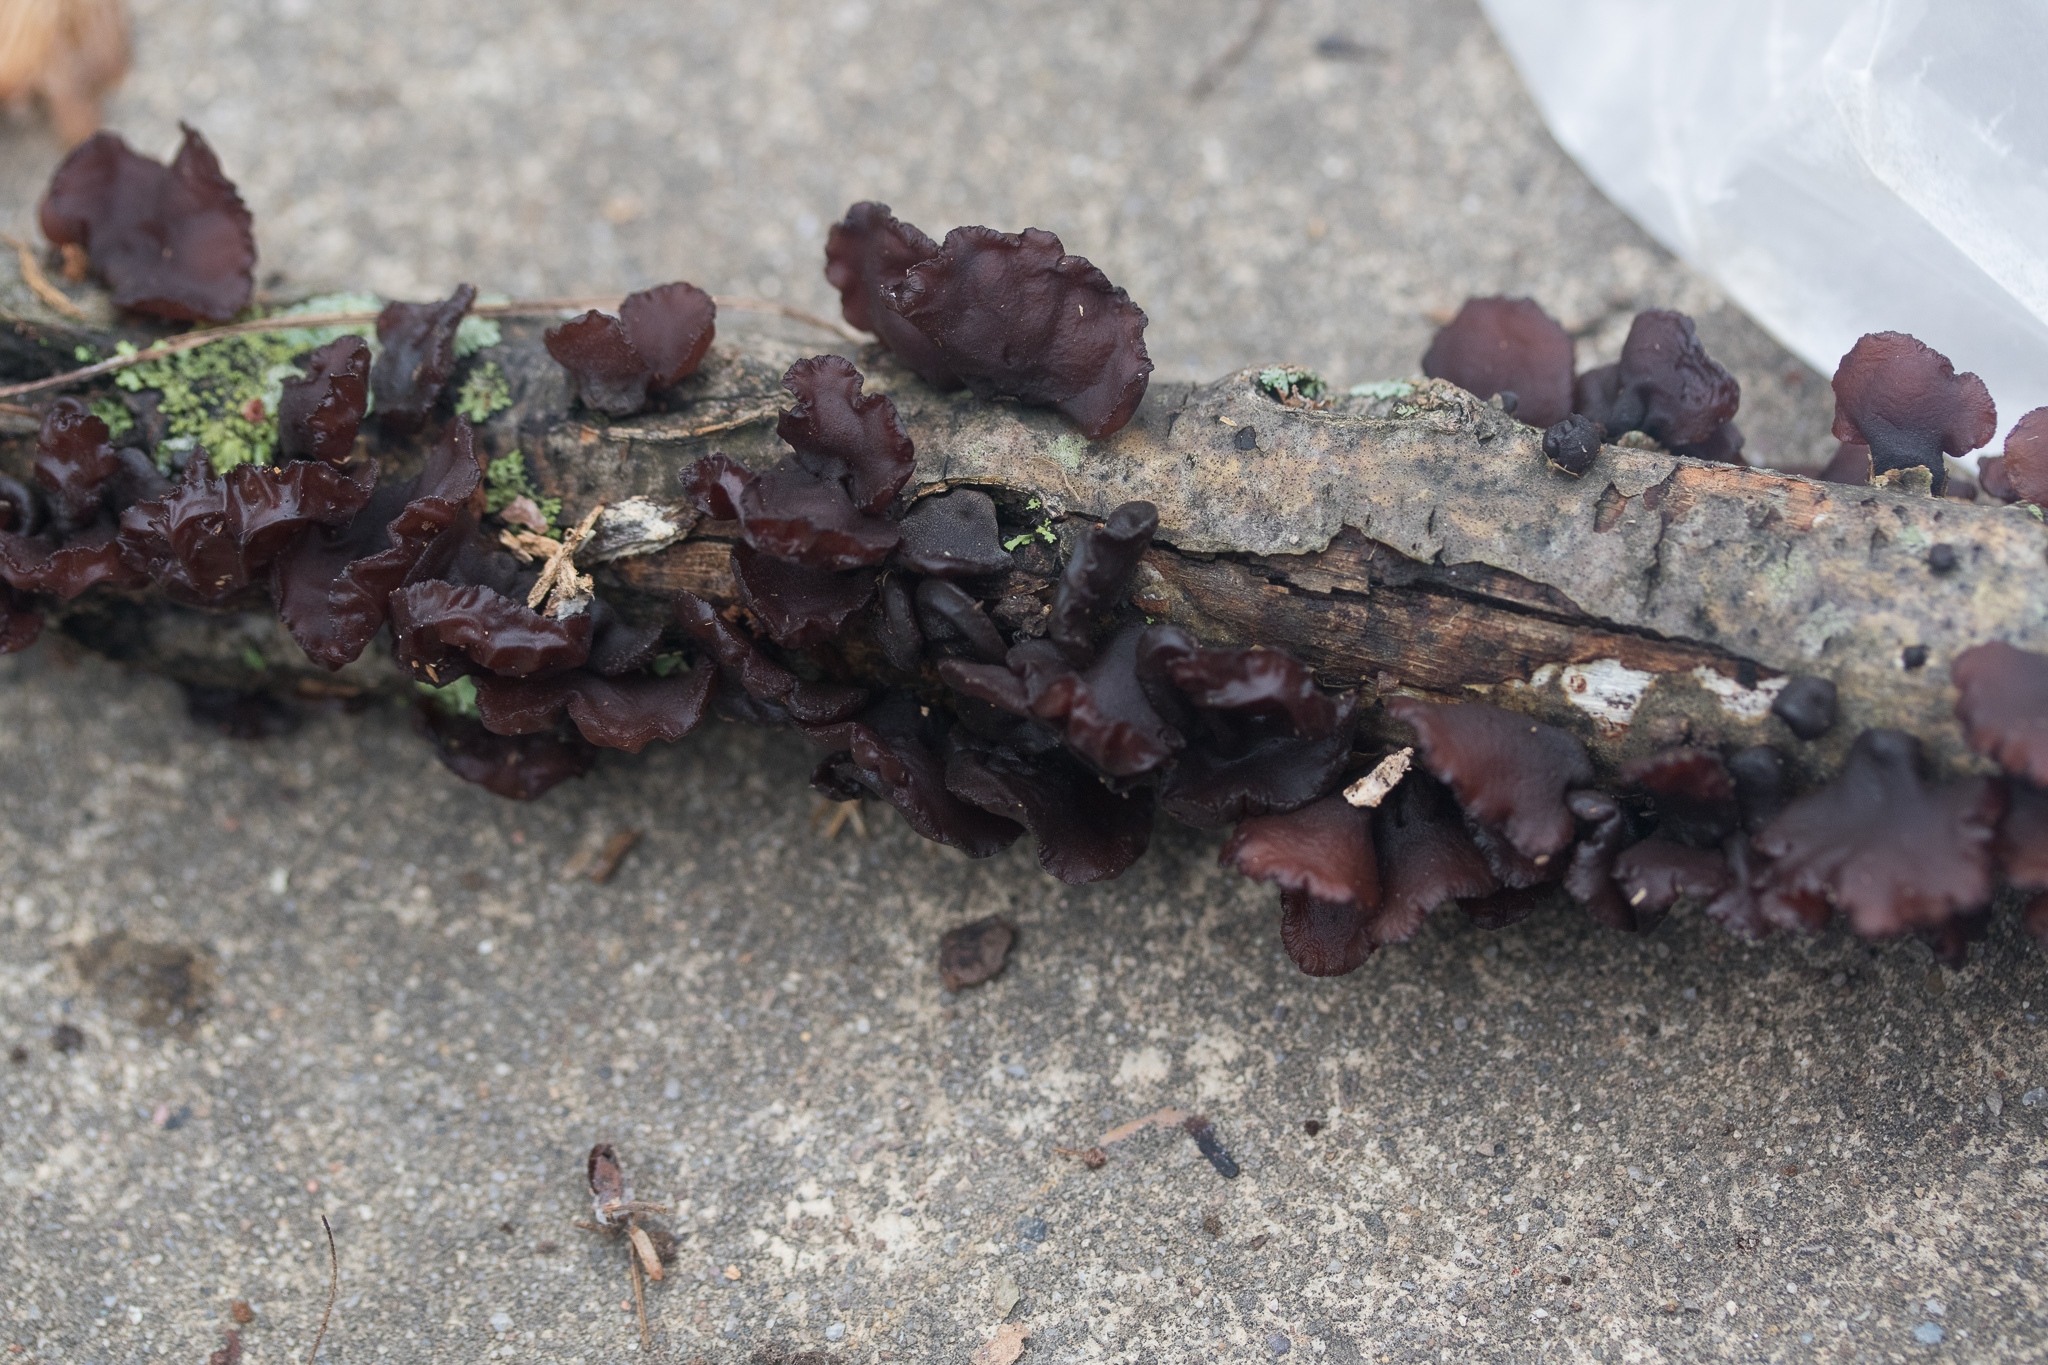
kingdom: Fungi
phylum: Basidiomycota
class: Agaricomycetes
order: Auriculariales
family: Auriculariaceae
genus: Exidia
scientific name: Exidia
